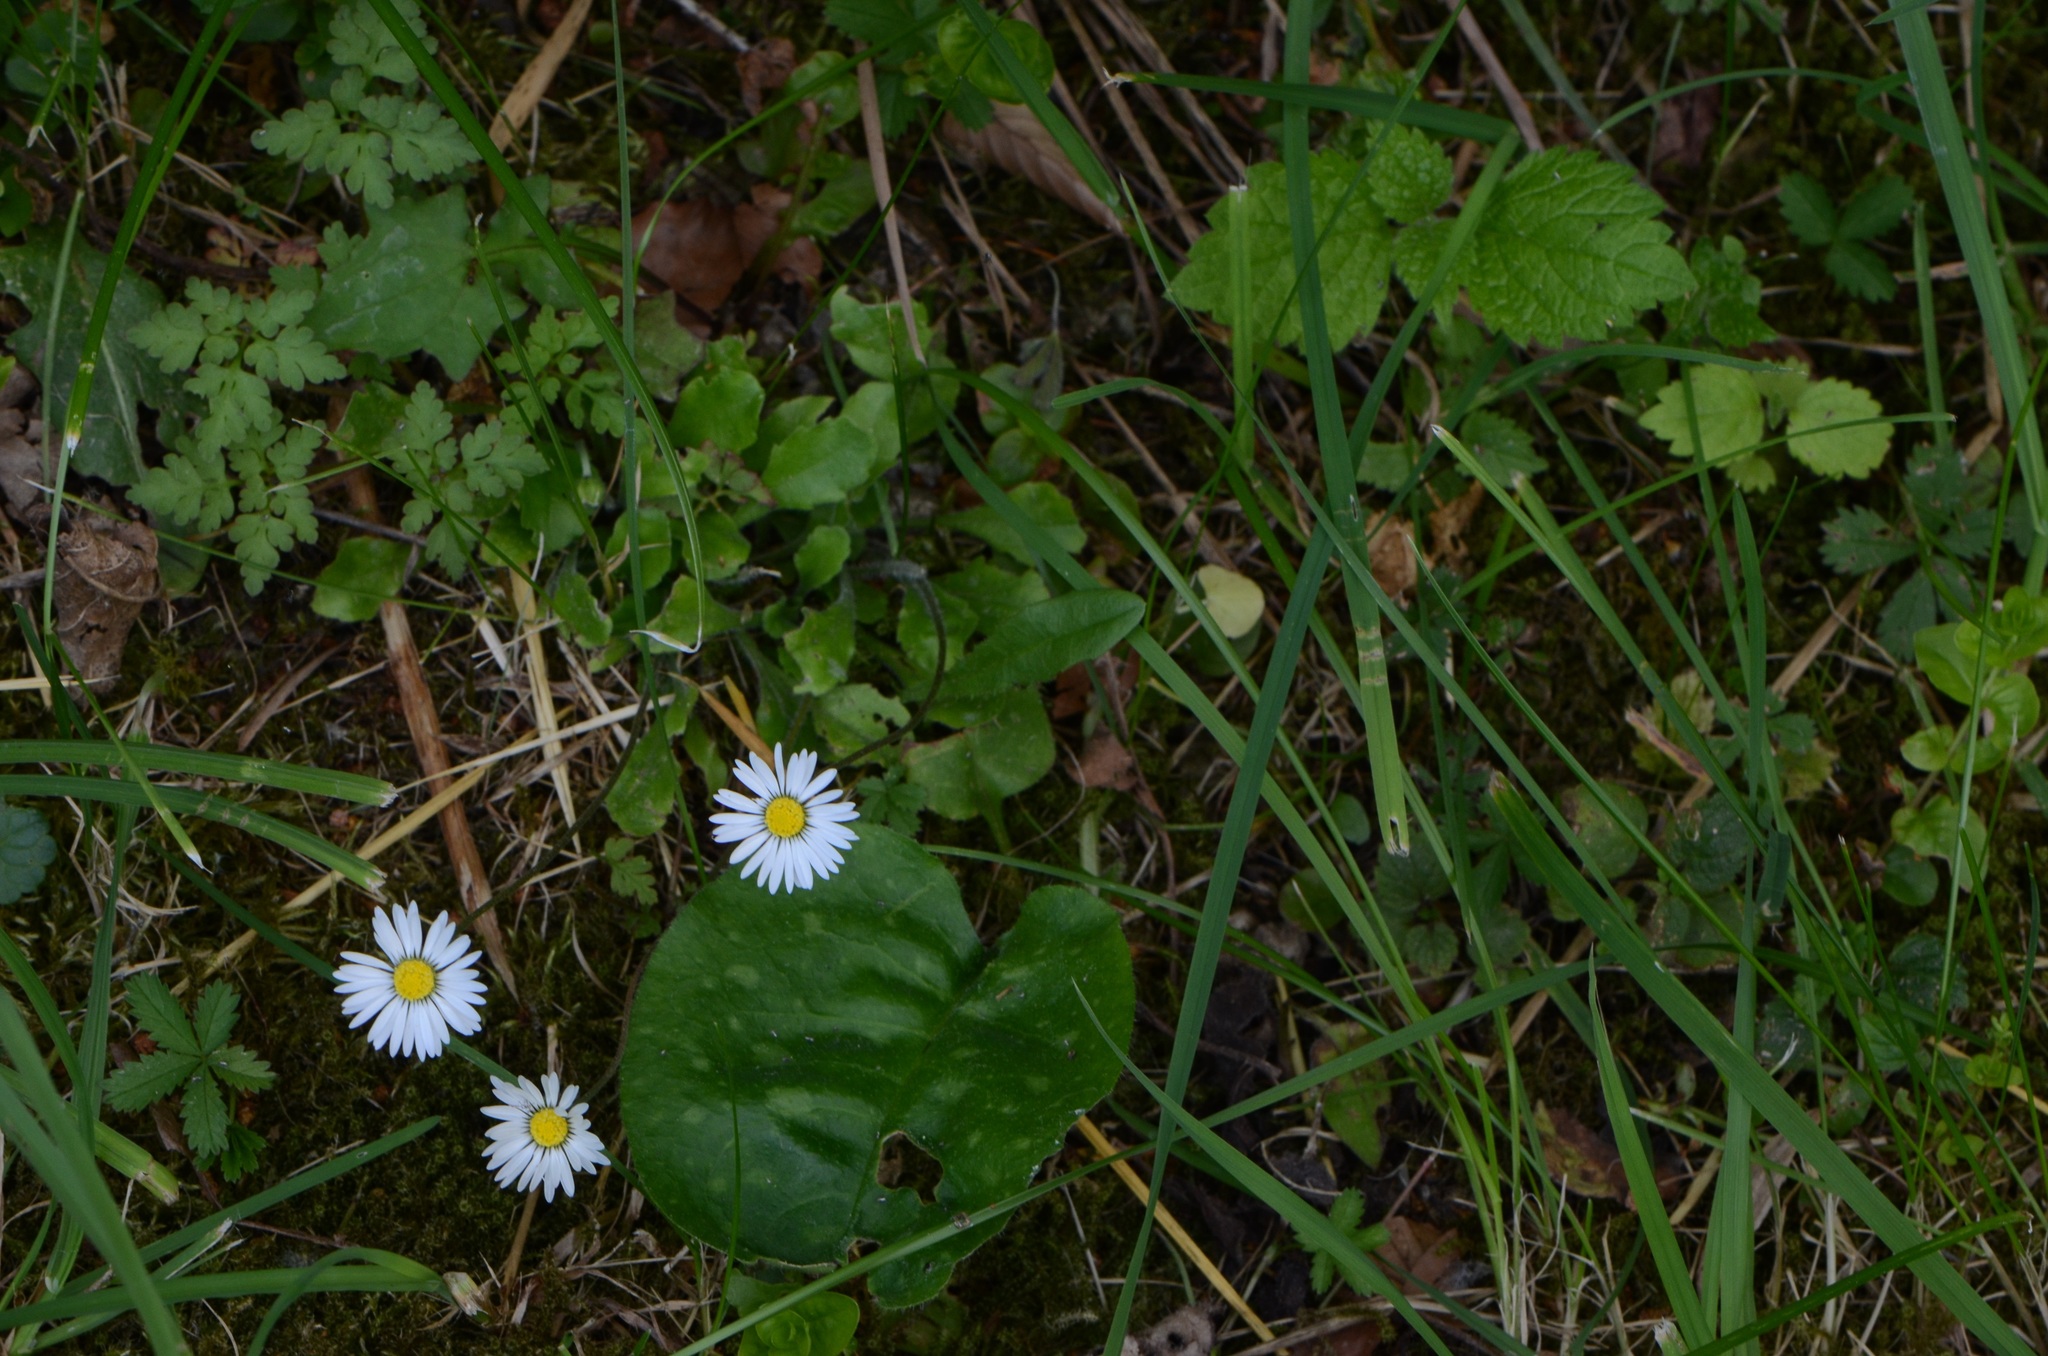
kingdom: Plantae
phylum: Tracheophyta
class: Magnoliopsida
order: Asterales
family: Asteraceae
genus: Bellis
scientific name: Bellis perennis
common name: Lawndaisy
